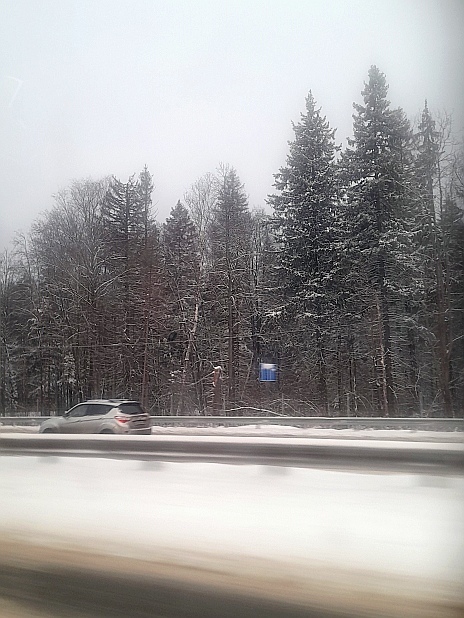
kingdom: Plantae
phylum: Tracheophyta
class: Pinopsida
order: Pinales
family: Pinaceae
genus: Picea
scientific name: Picea abies
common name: Norway spruce
